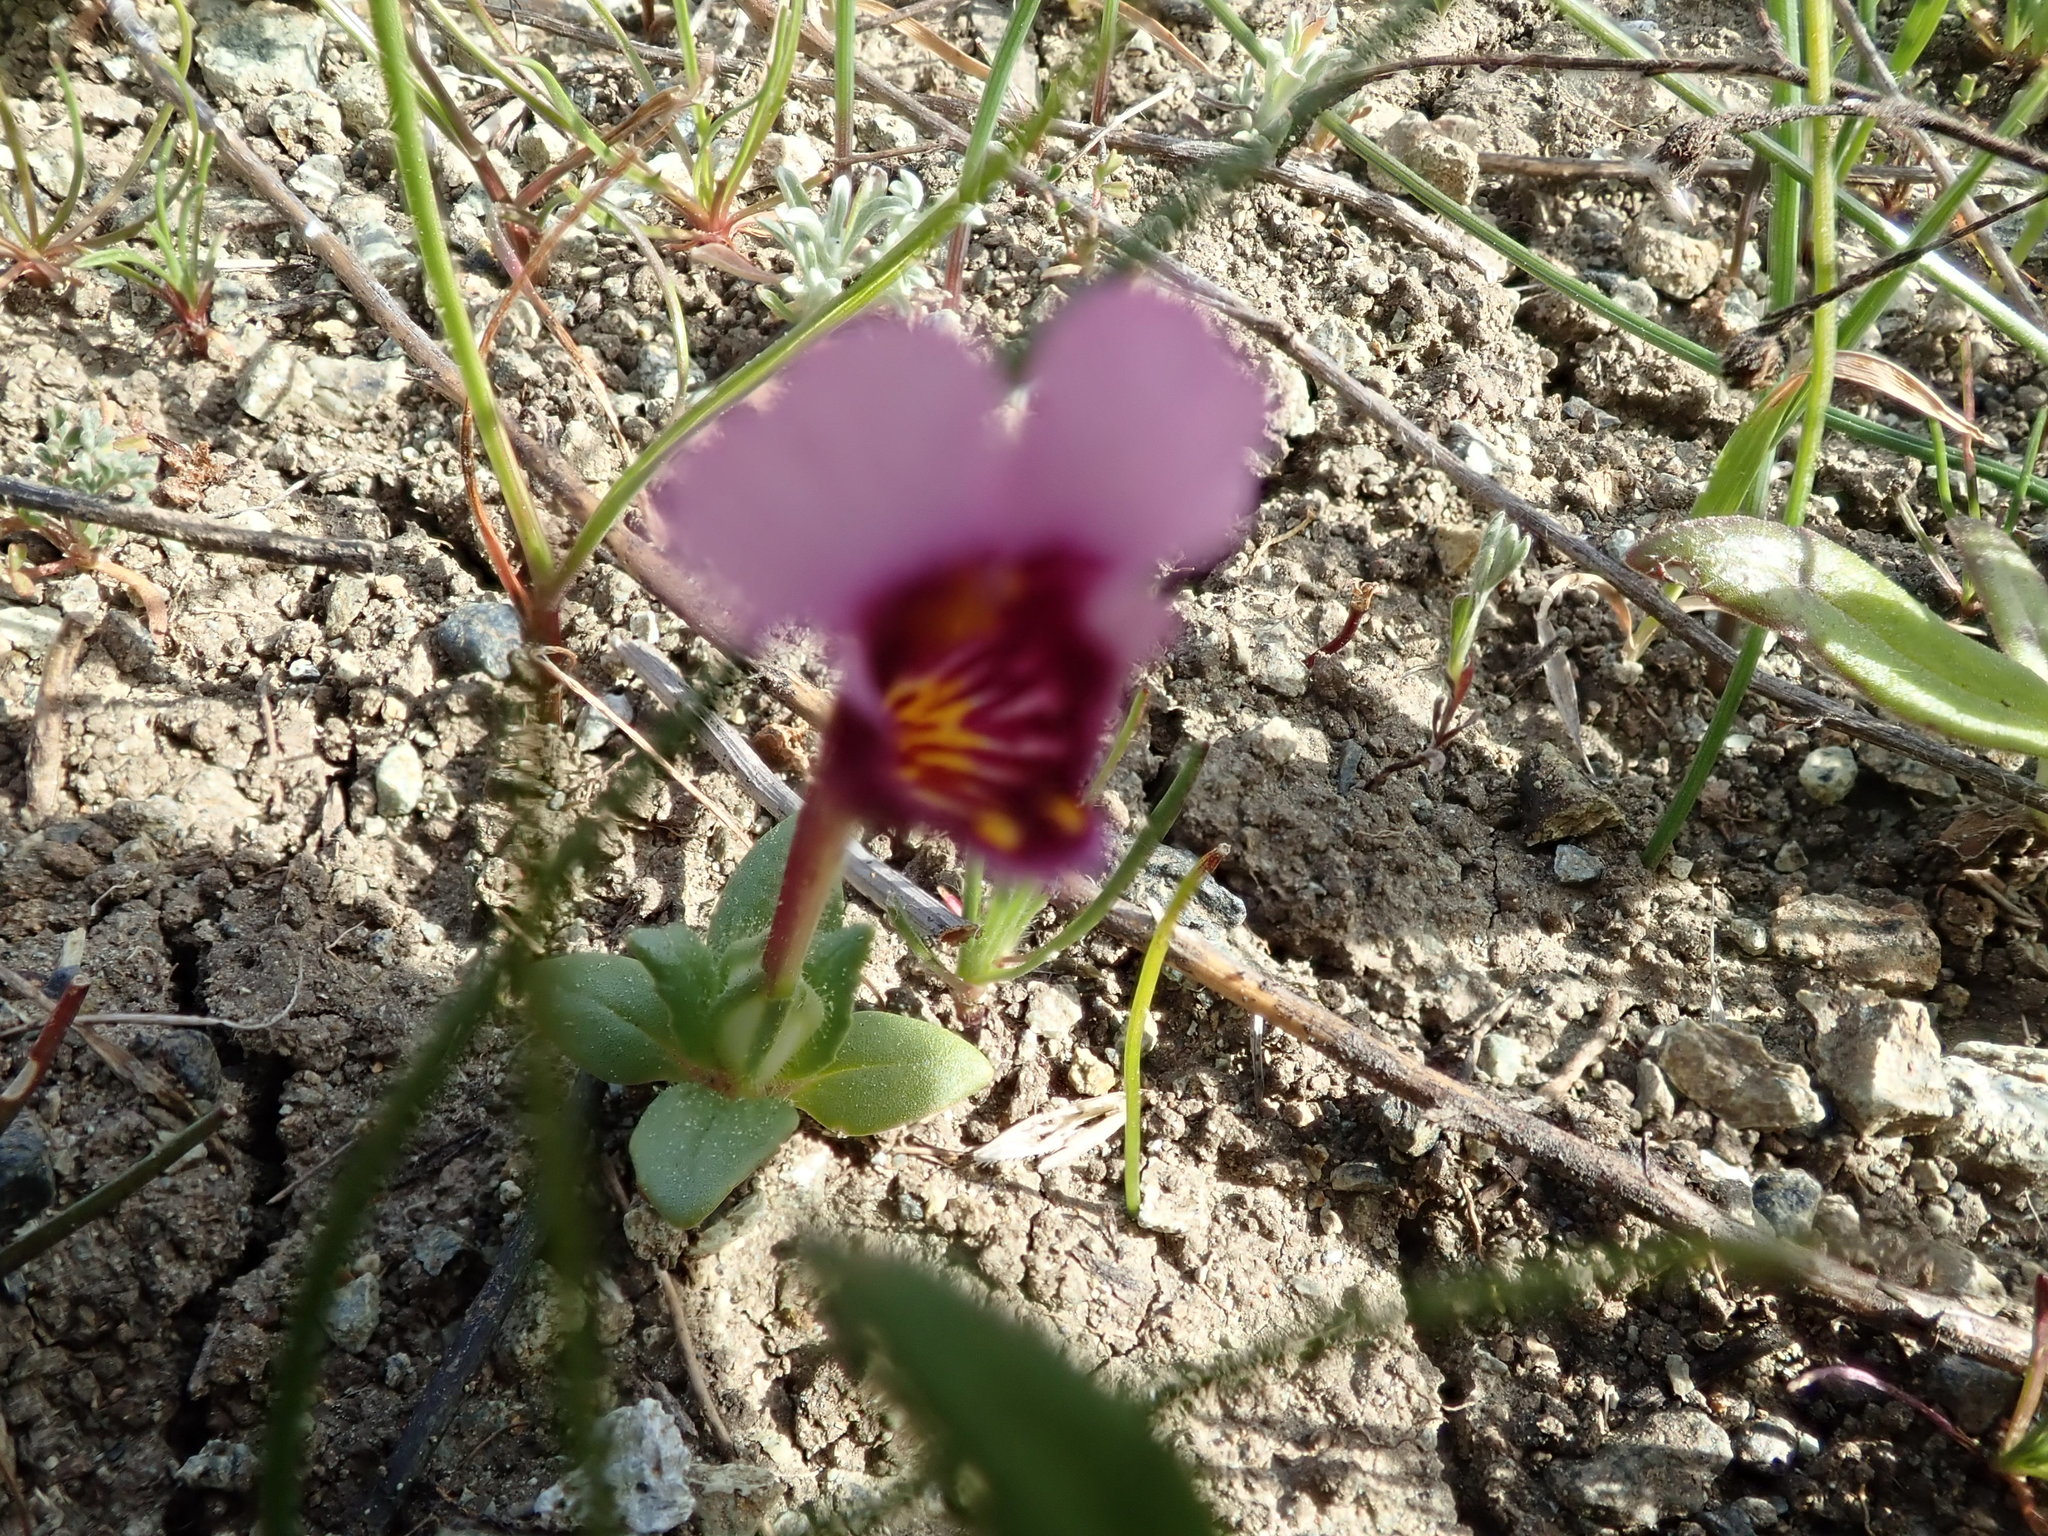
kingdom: Plantae
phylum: Tracheophyta
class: Magnoliopsida
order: Lamiales
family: Phrymaceae
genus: Diplacus
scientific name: Diplacus douglasii
